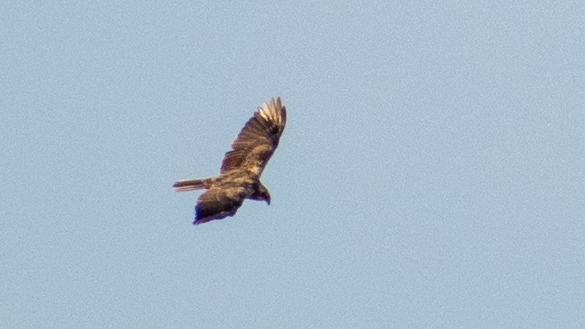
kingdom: Animalia
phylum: Chordata
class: Aves
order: Accipitriformes
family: Accipitridae
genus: Circus
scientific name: Circus aeruginosus
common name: Western marsh harrier
